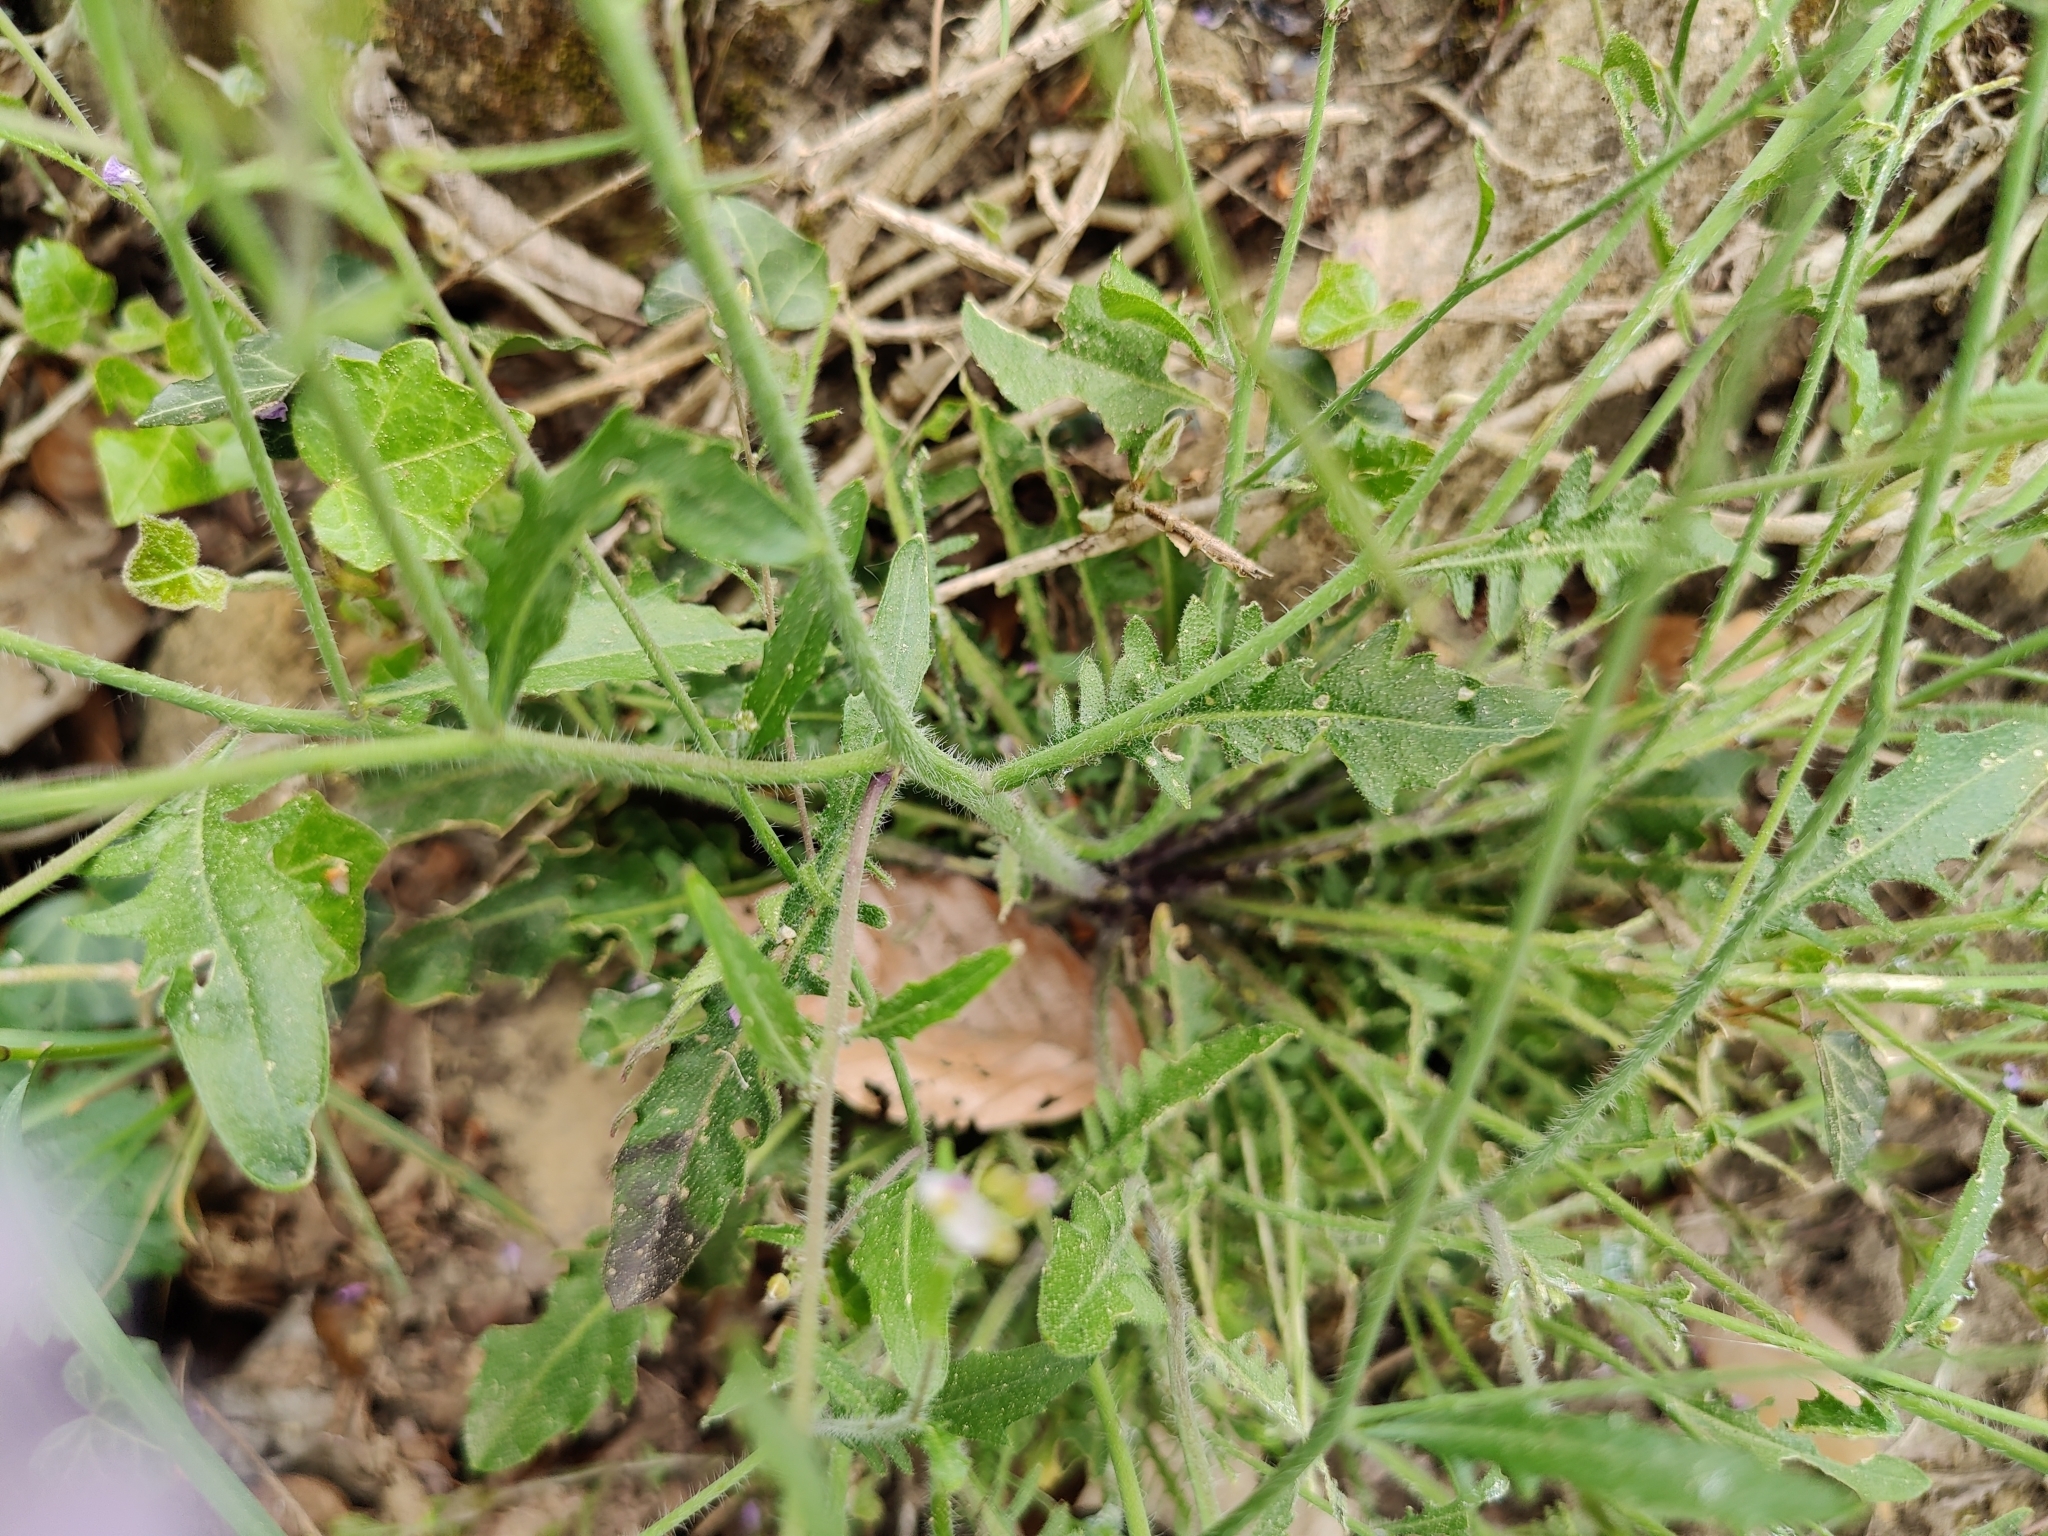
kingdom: Plantae
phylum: Tracheophyta
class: Magnoliopsida
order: Brassicales
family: Brassicaceae
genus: Arabidopsis
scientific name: Arabidopsis arenosa
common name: Sand rock-cress
